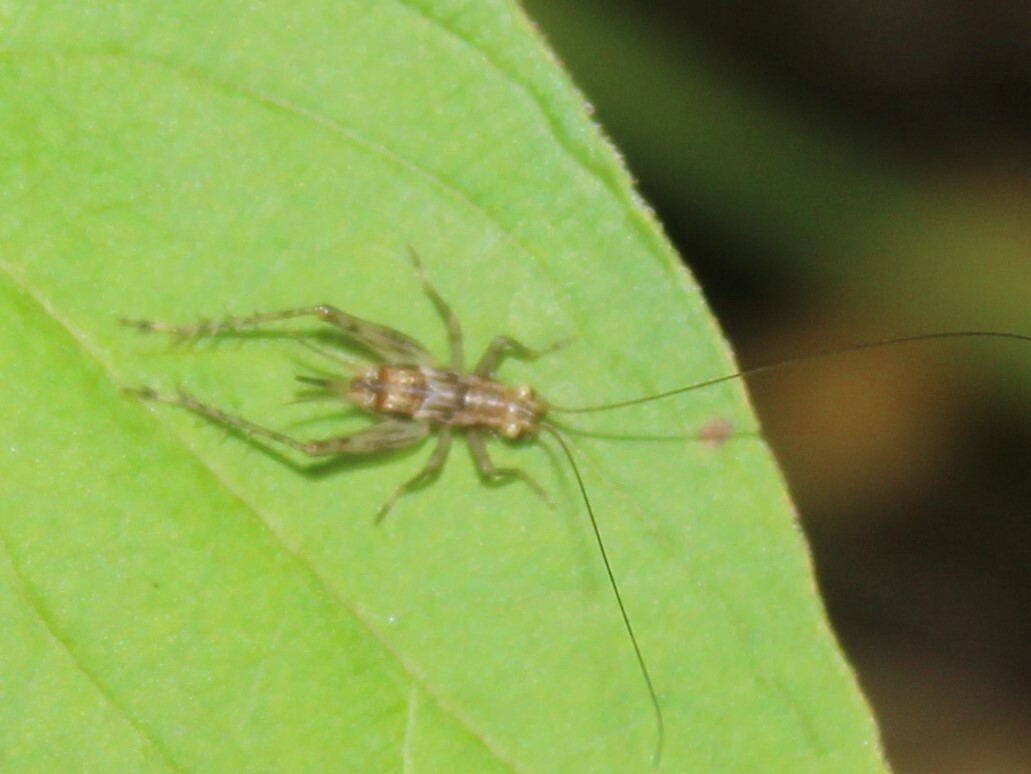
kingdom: Animalia
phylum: Arthropoda
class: Insecta
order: Orthoptera
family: Trigonidiidae
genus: Anaxipha
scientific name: Anaxipha exigua
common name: Say's bush cricket
